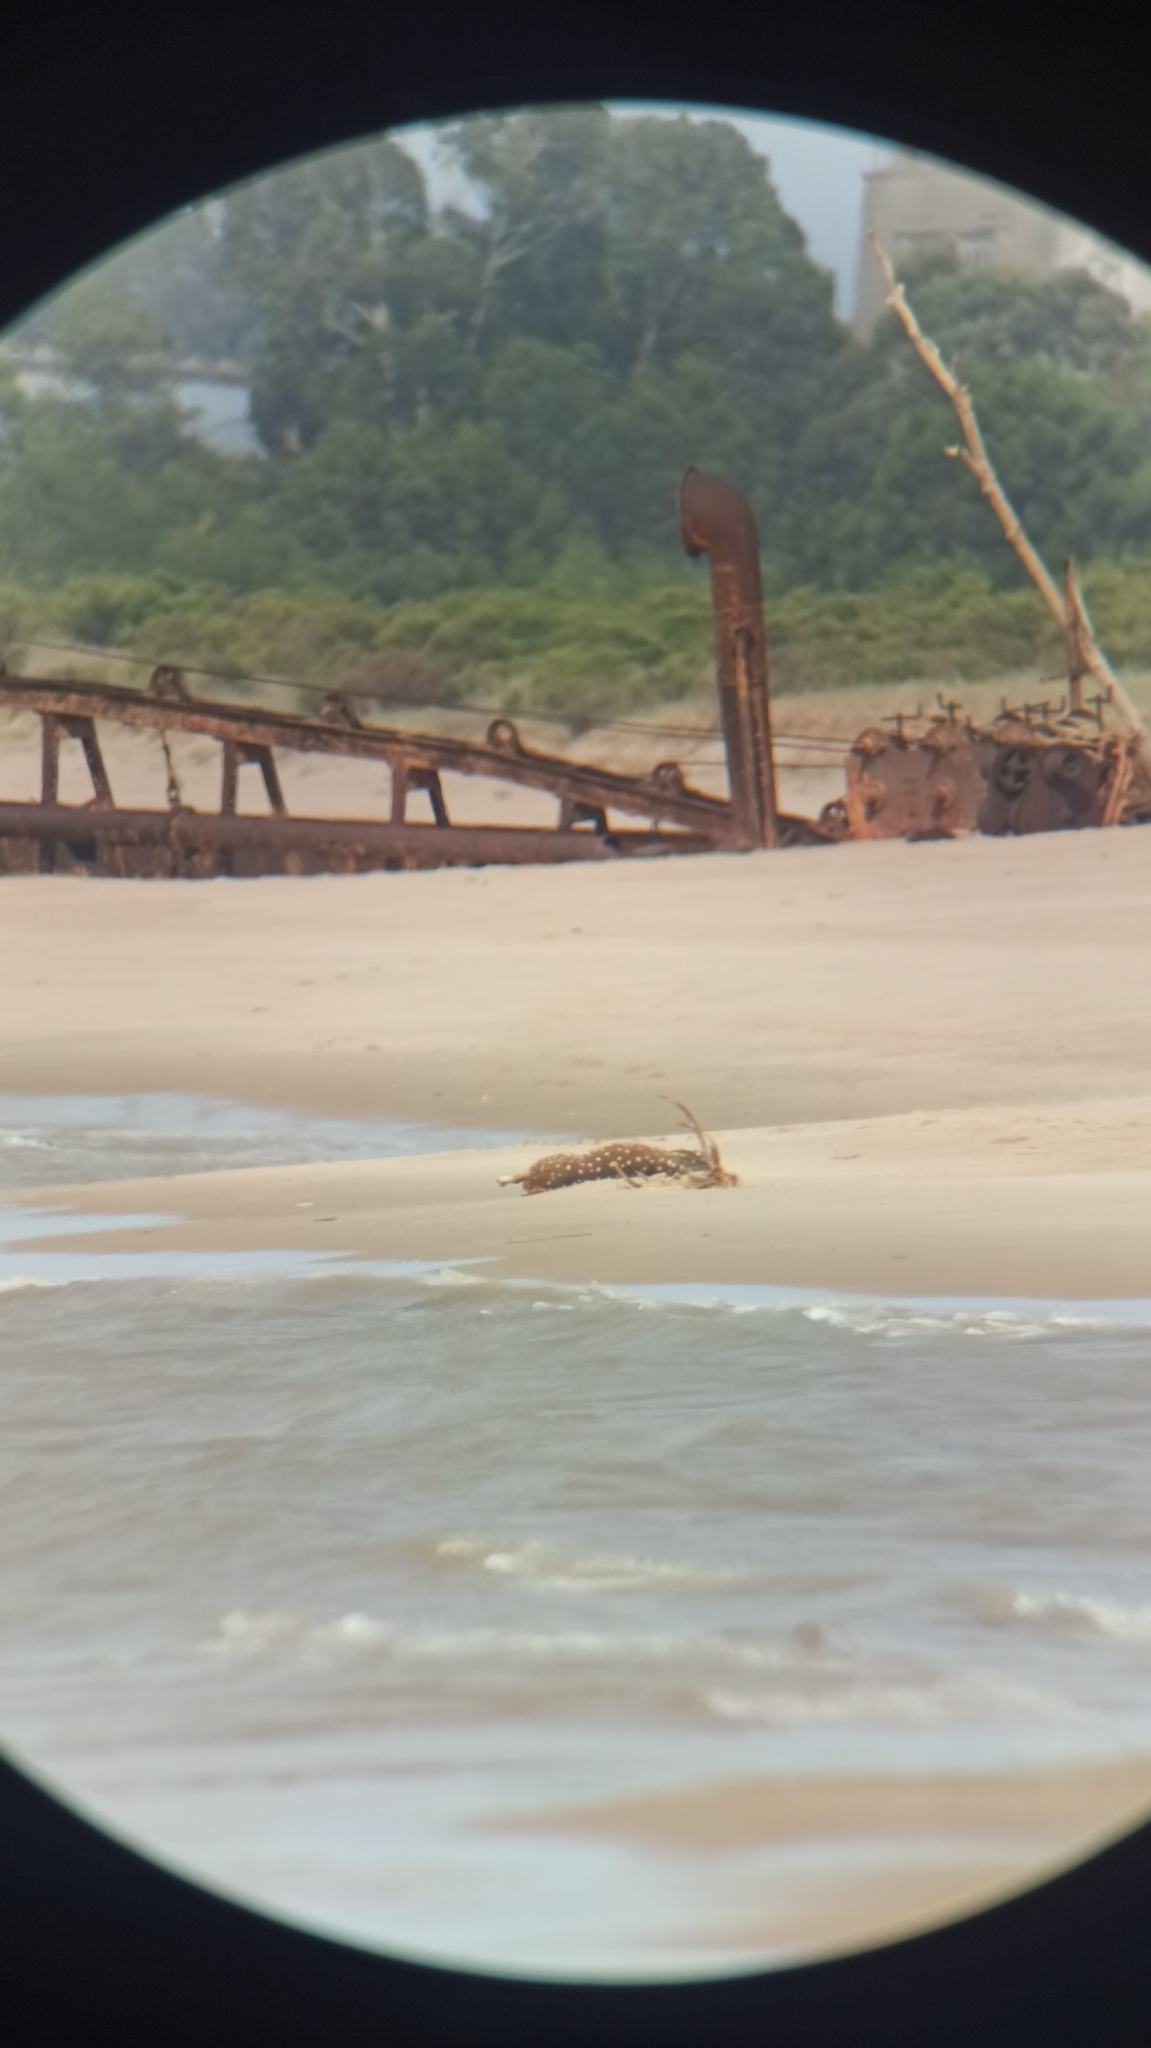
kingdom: Animalia
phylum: Chordata
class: Mammalia
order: Artiodactyla
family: Cervidae
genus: Axis
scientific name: Axis axis
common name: Chital
